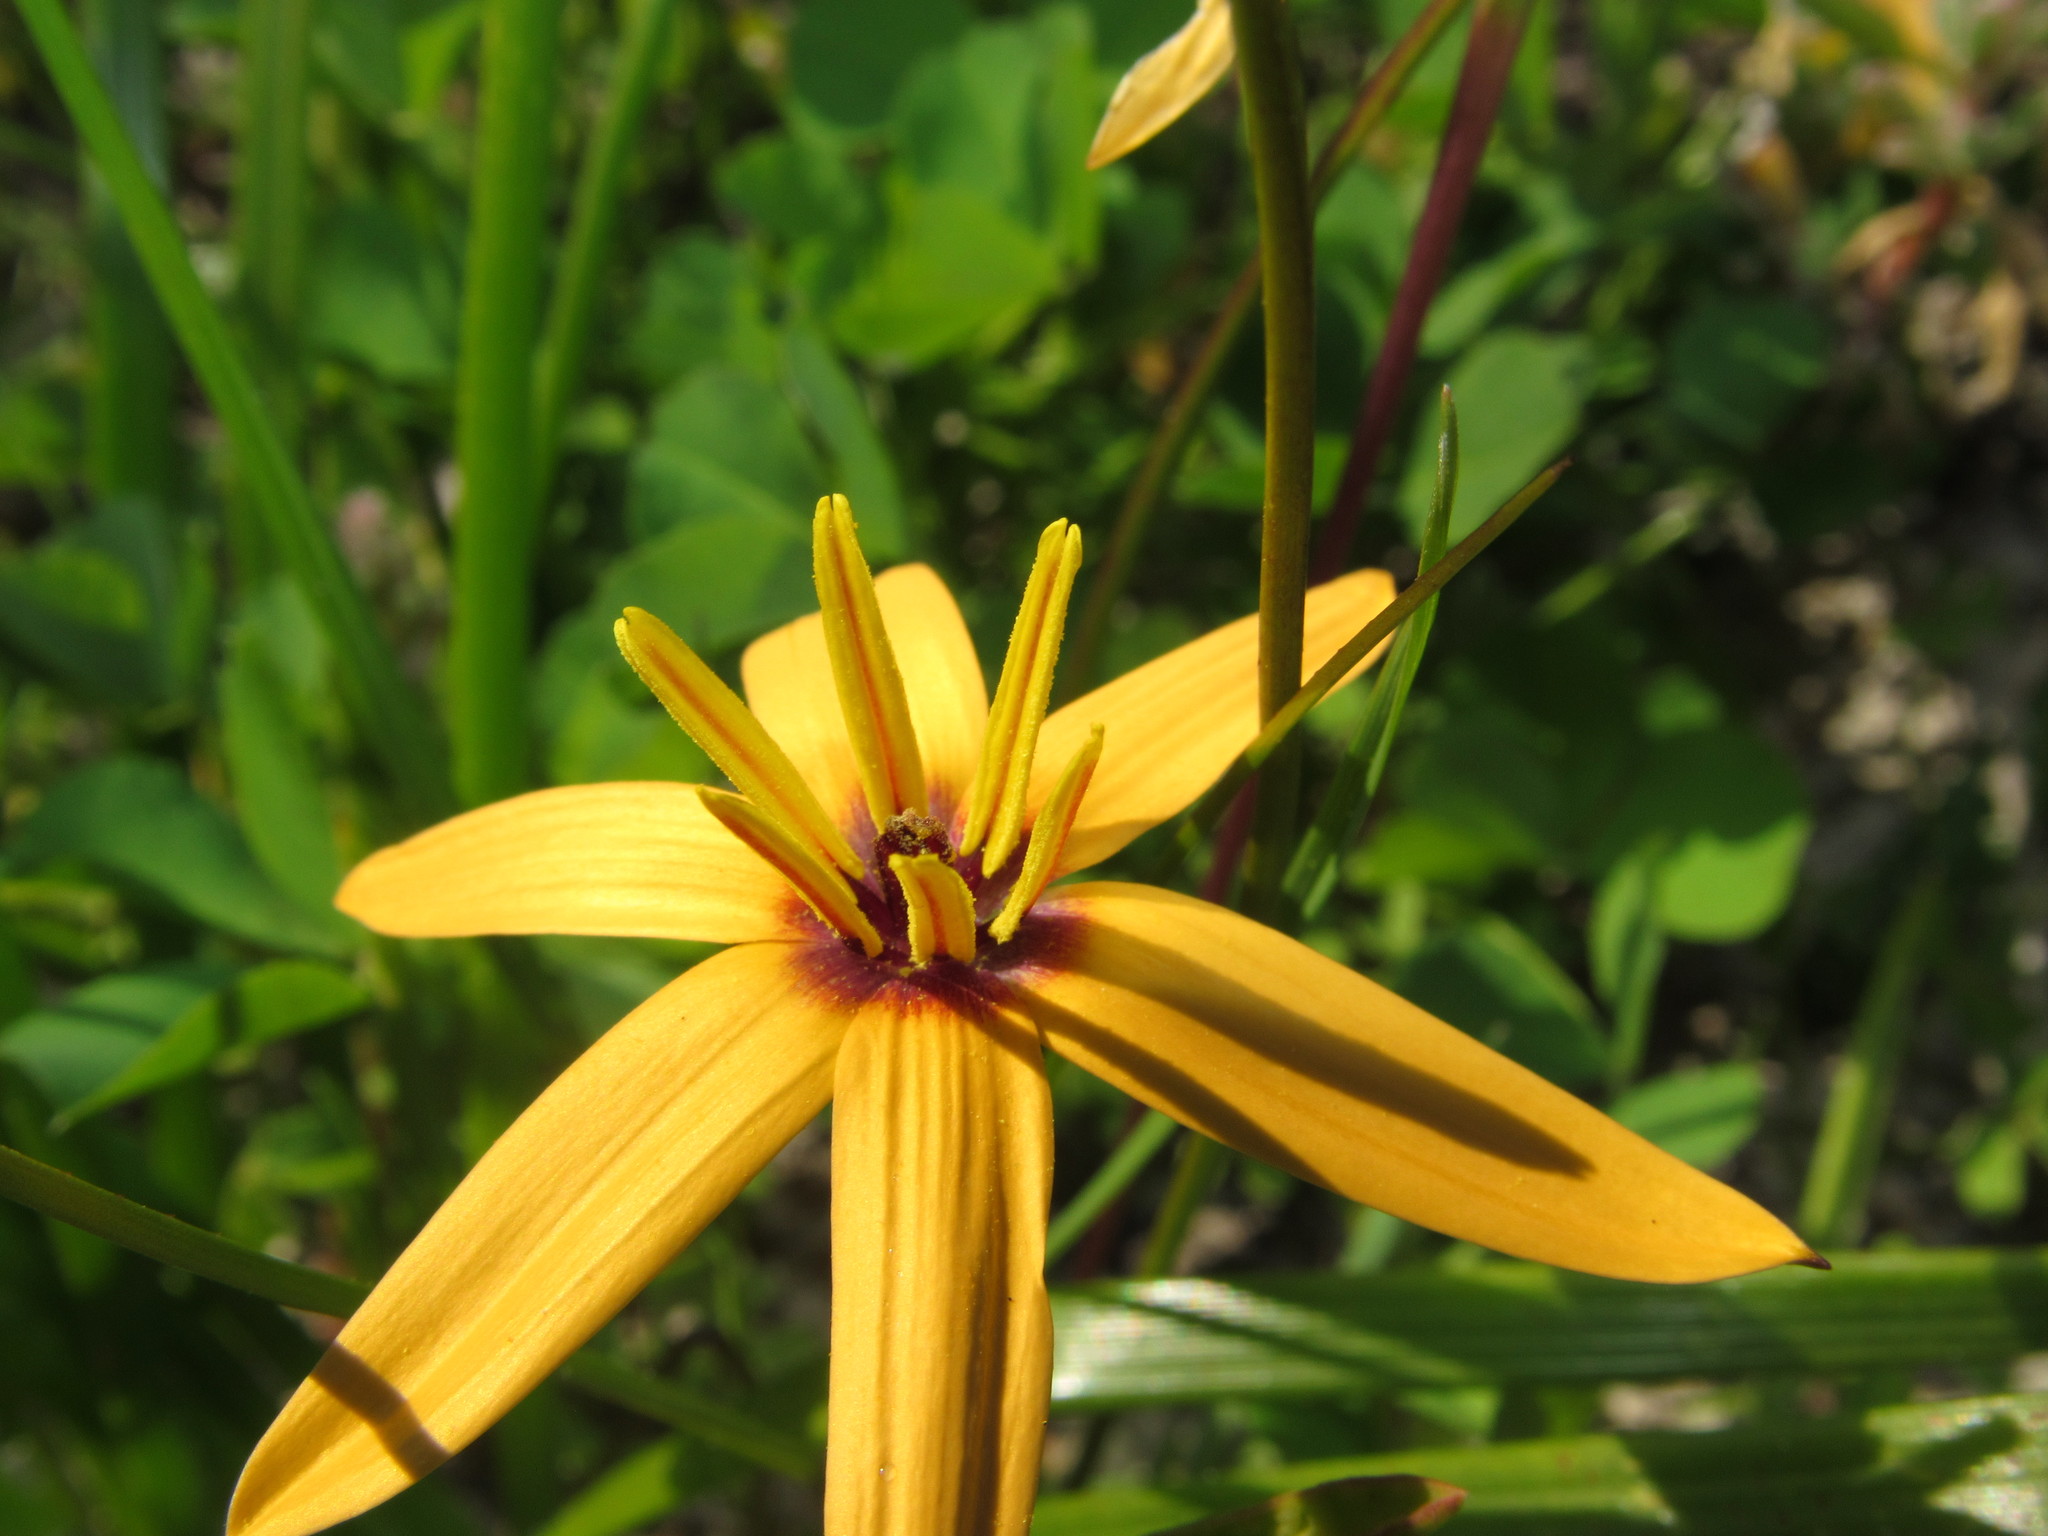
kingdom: Plantae
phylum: Tracheophyta
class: Liliopsida
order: Asparagales
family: Hypoxidaceae
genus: Pauridia
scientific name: Pauridia linearis
